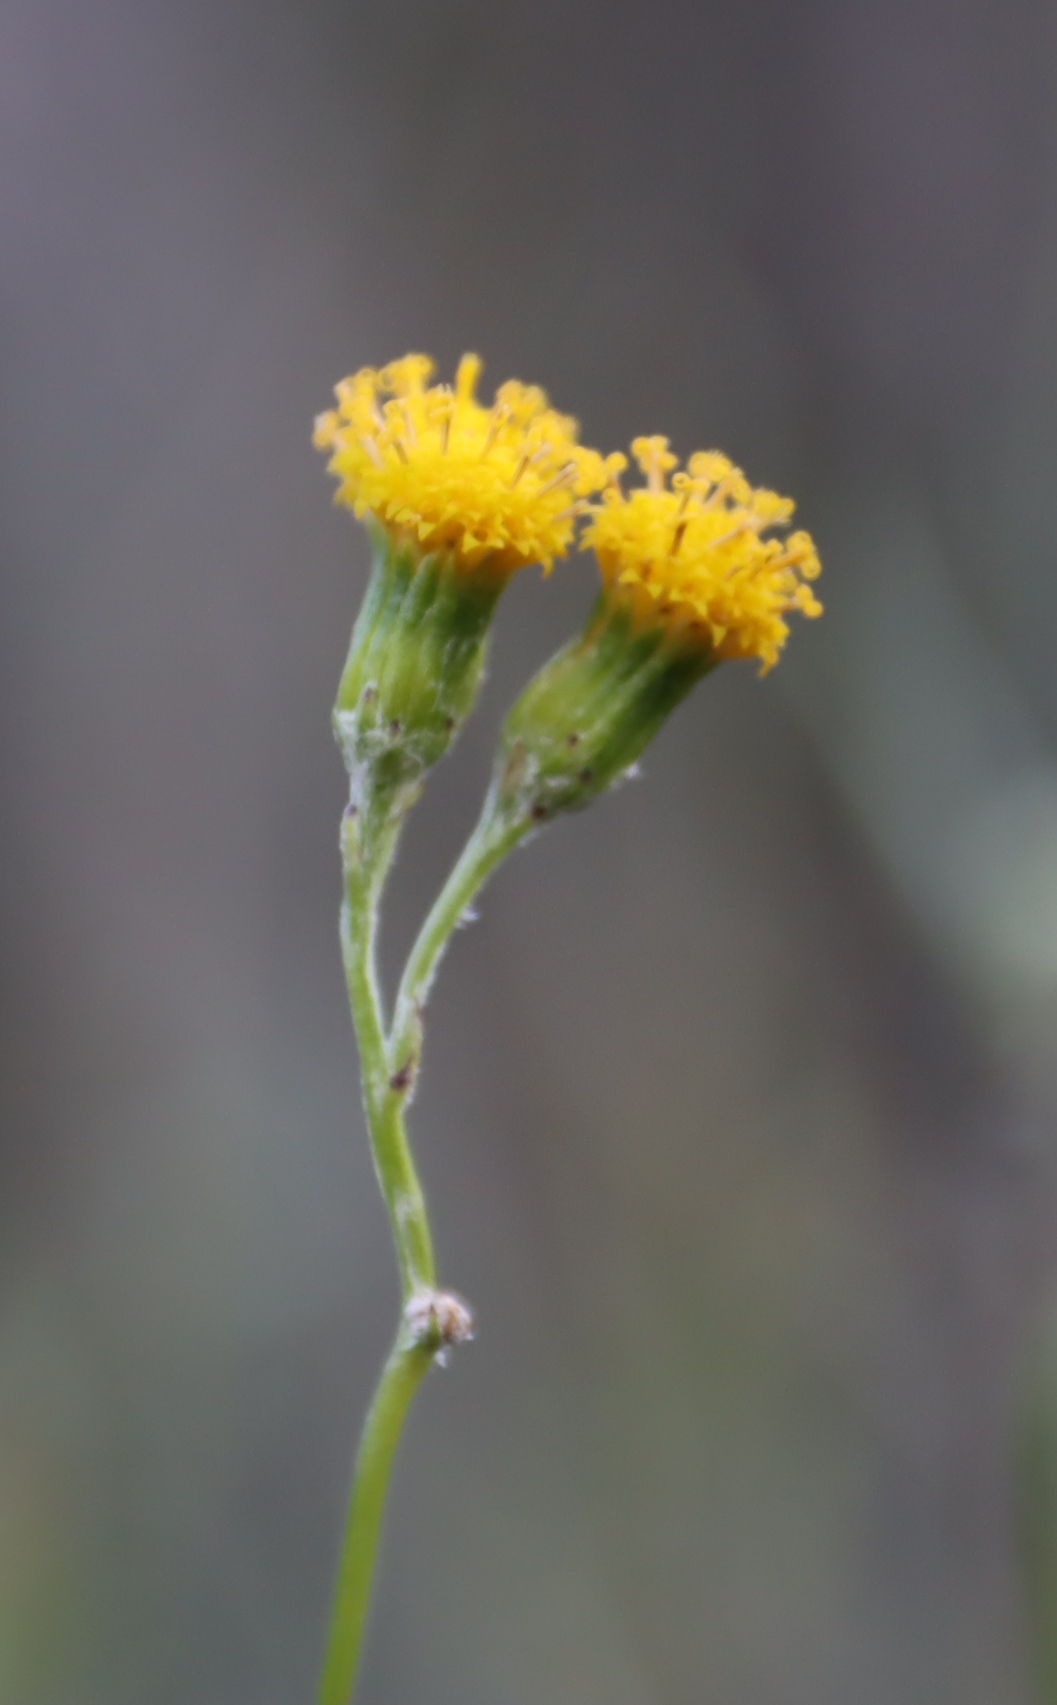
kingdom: Plantae
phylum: Tracheophyta
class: Magnoliopsida
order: Asterales
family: Asteraceae
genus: Senecio
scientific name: Senecio niveus
